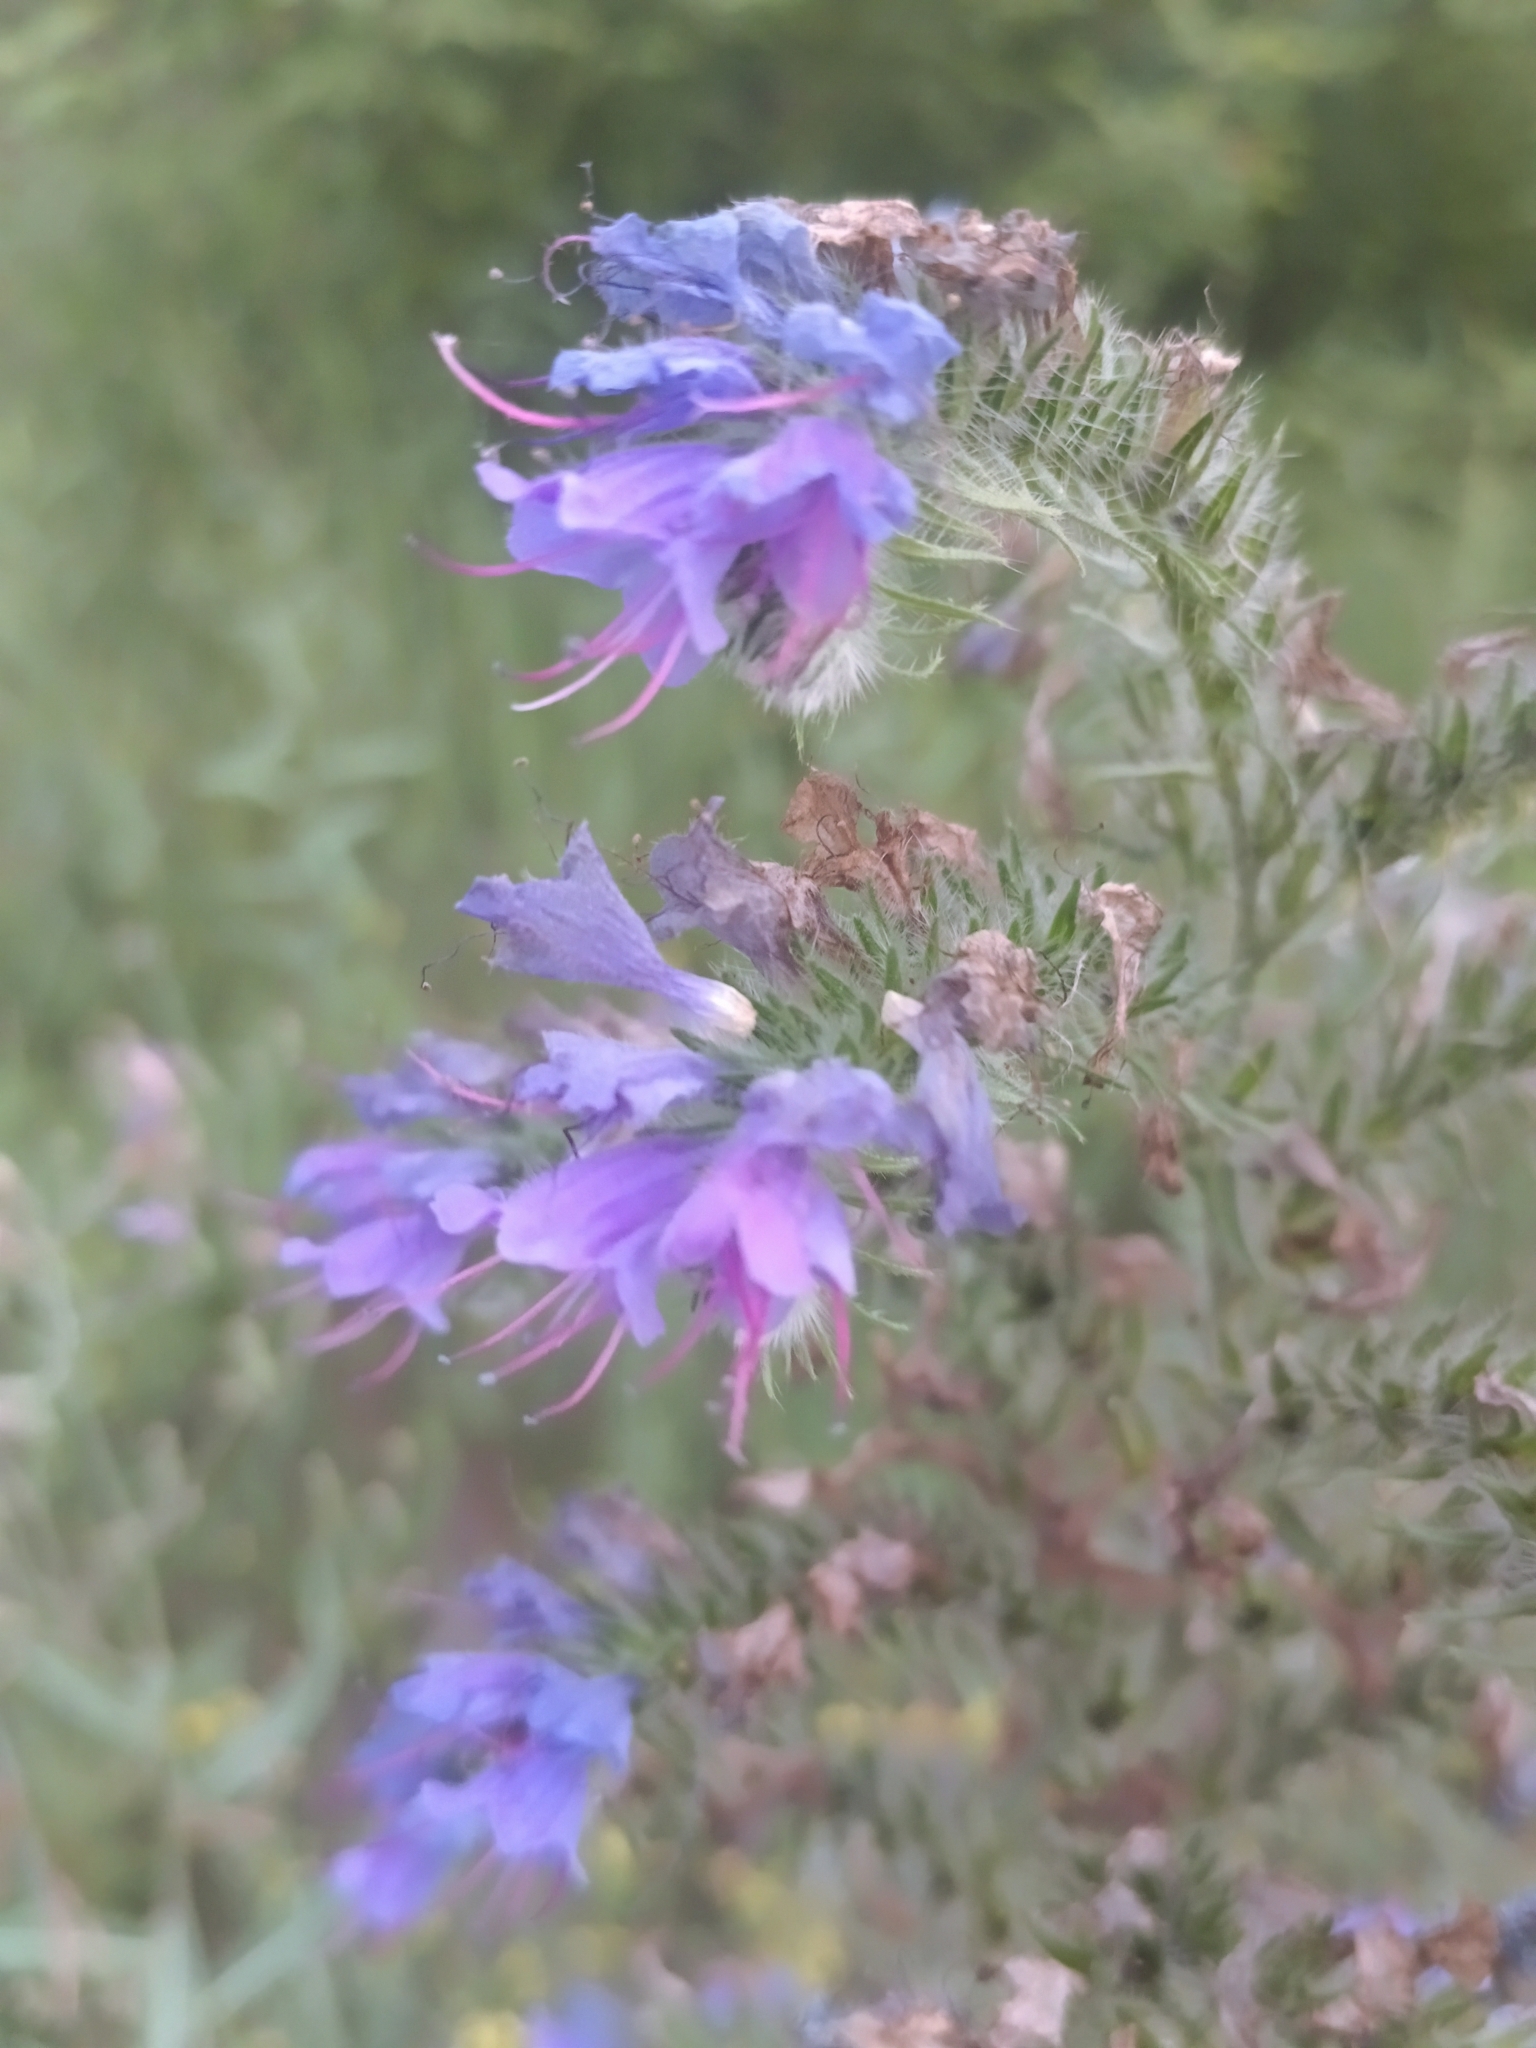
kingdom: Plantae
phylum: Tracheophyta
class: Magnoliopsida
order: Boraginales
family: Boraginaceae
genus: Echium
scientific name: Echium vulgare
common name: Common viper's bugloss
